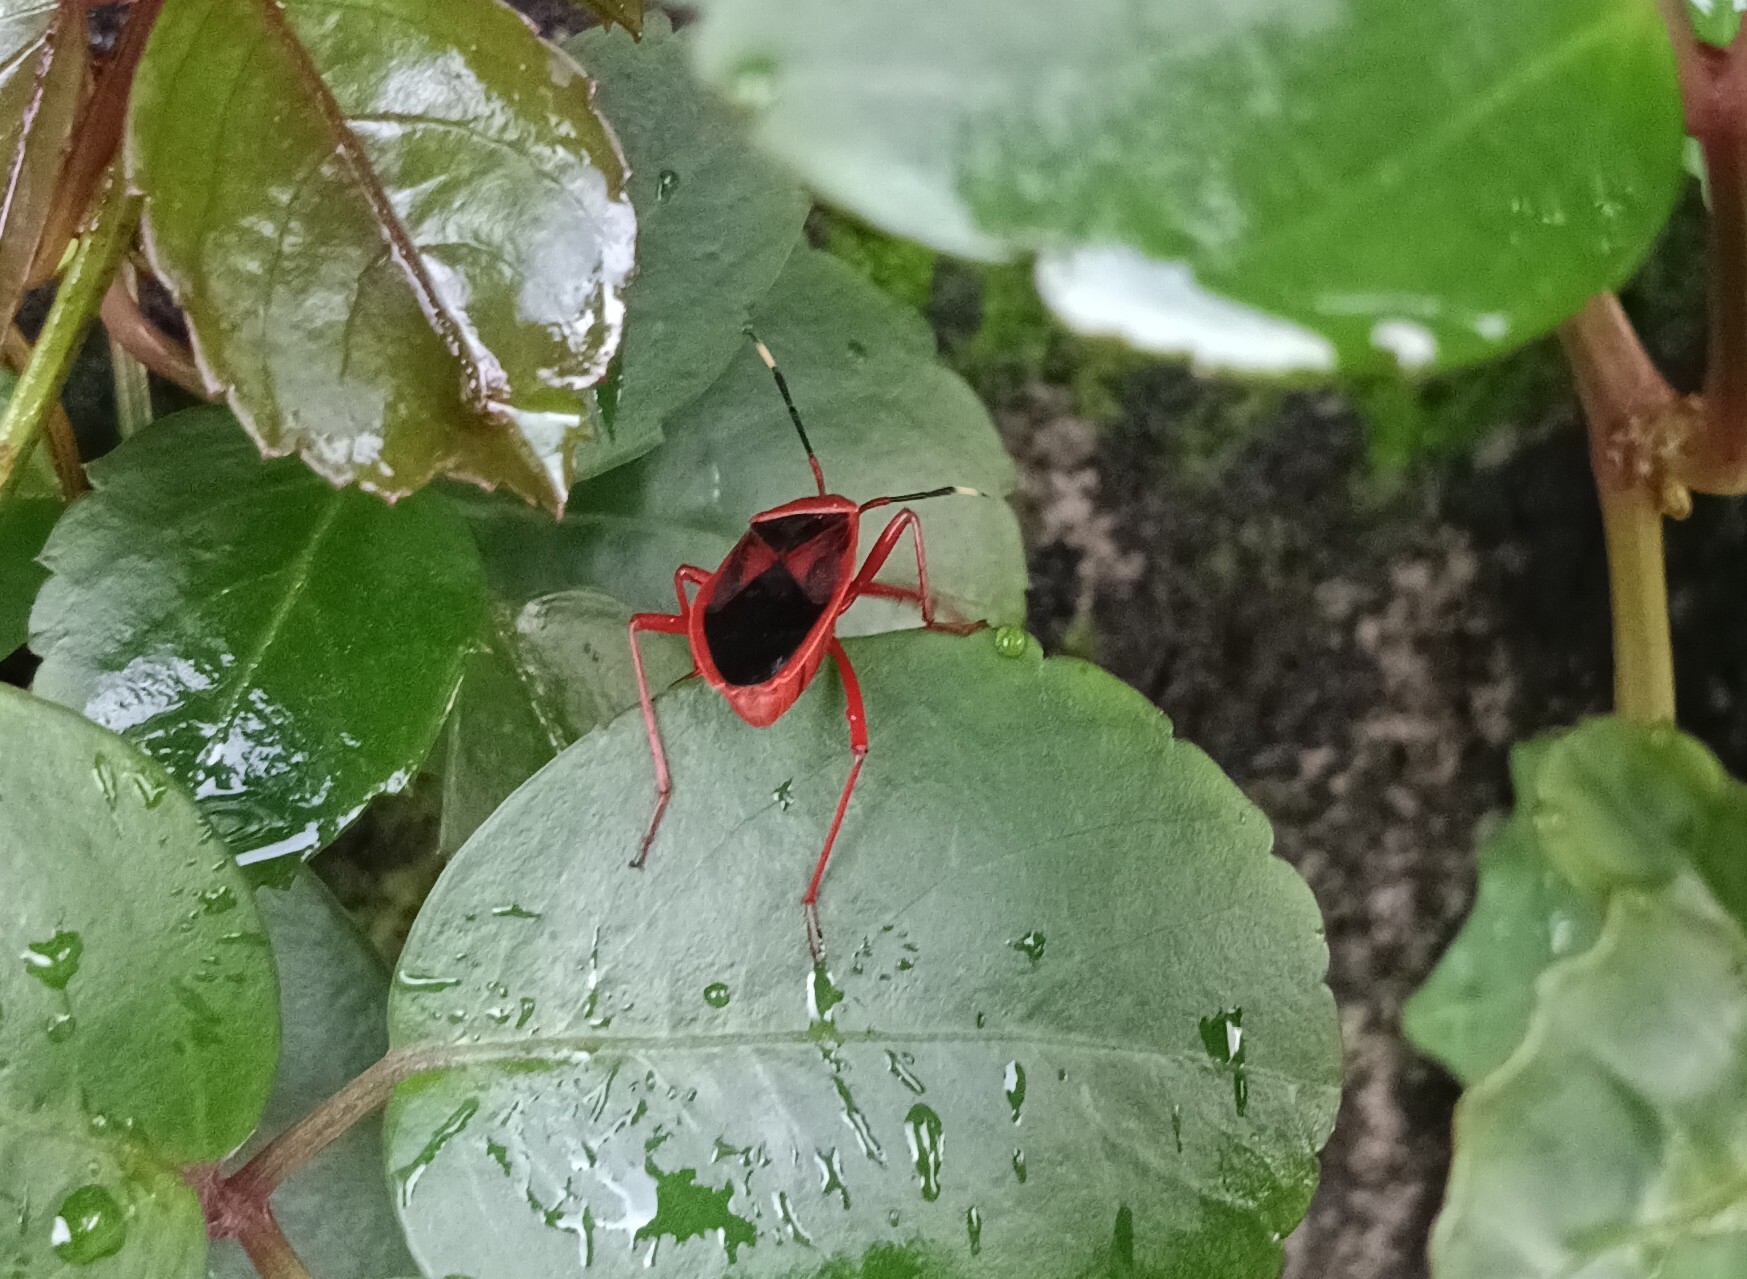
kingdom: Animalia
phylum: Arthropoda
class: Insecta
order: Hemiptera
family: Pyrrhocoridae
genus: Probergrothius
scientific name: Probergrothius
